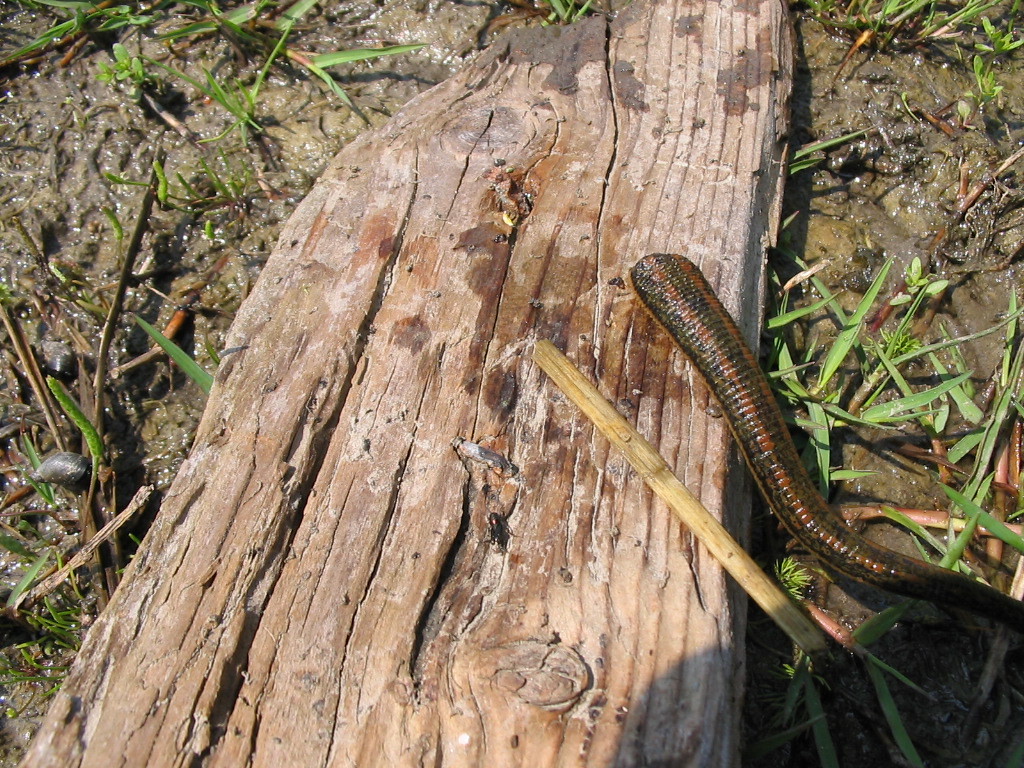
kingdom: Animalia
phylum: Annelida
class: Clitellata
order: Arhynchobdellida
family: Hirudinidae
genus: Hirudo
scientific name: Hirudo verbana
